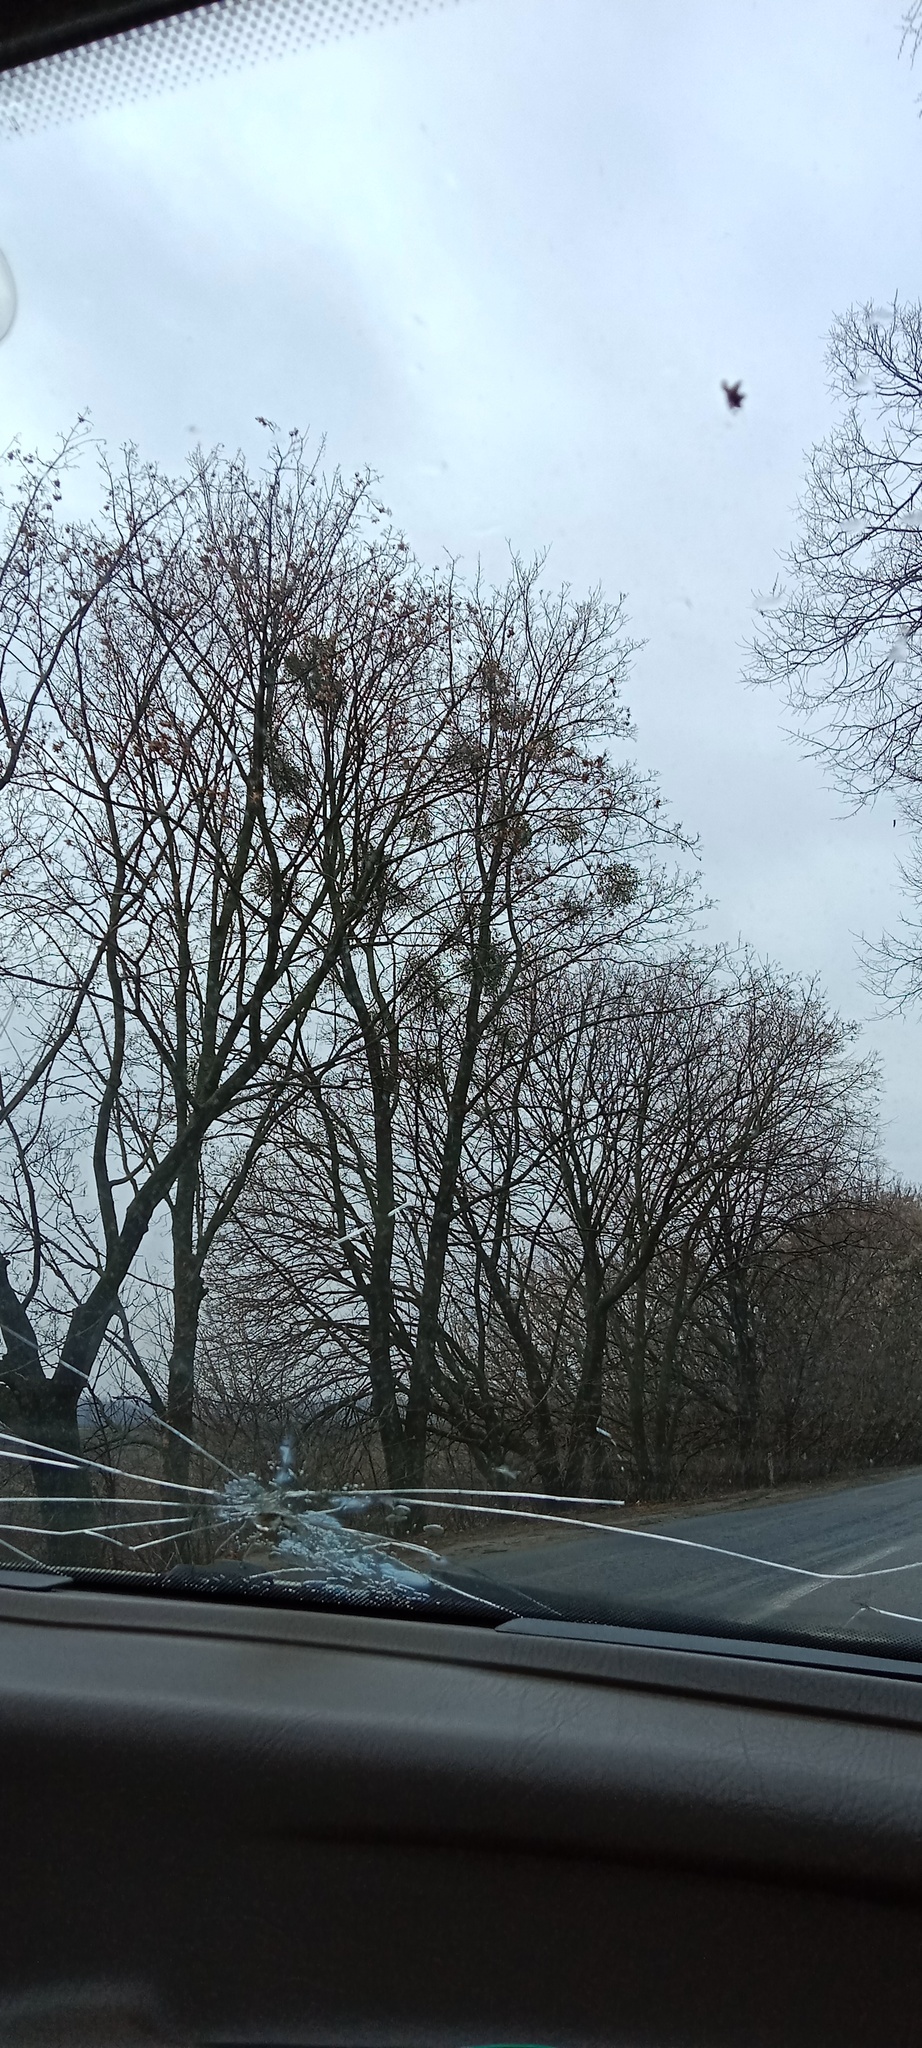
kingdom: Plantae
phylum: Tracheophyta
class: Magnoliopsida
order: Santalales
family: Viscaceae
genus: Viscum
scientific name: Viscum album
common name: Mistletoe
